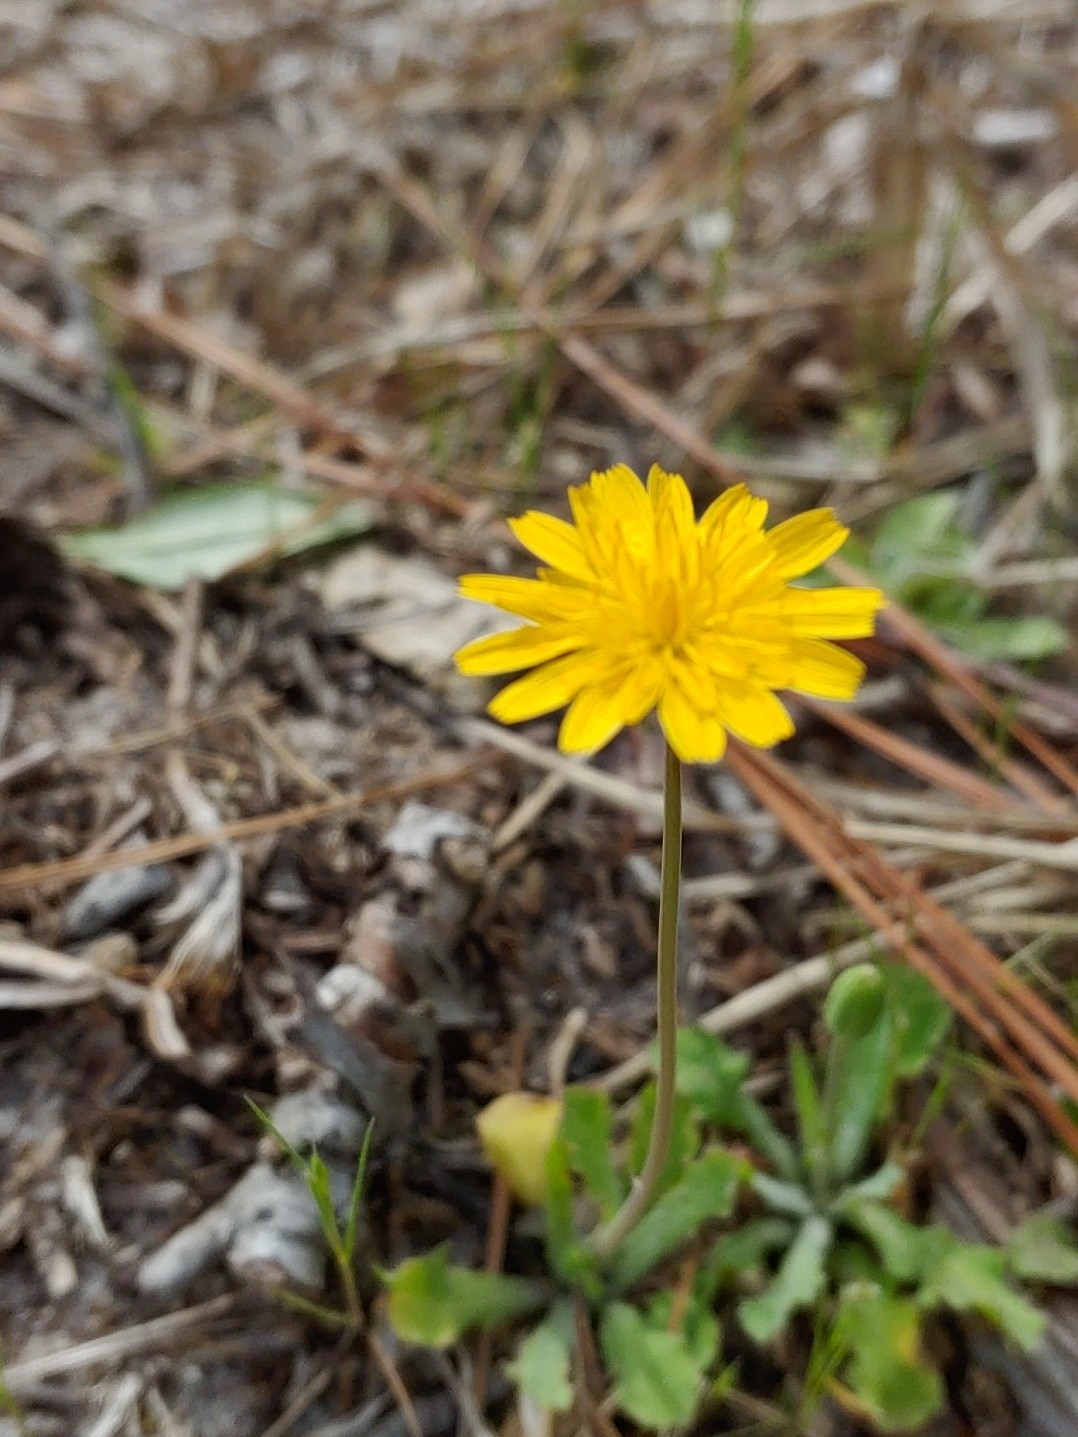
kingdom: Plantae
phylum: Tracheophyta
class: Magnoliopsida
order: Asterales
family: Asteraceae
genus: Krigia
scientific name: Krigia virginica
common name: Virginia dwarf-dandelion
